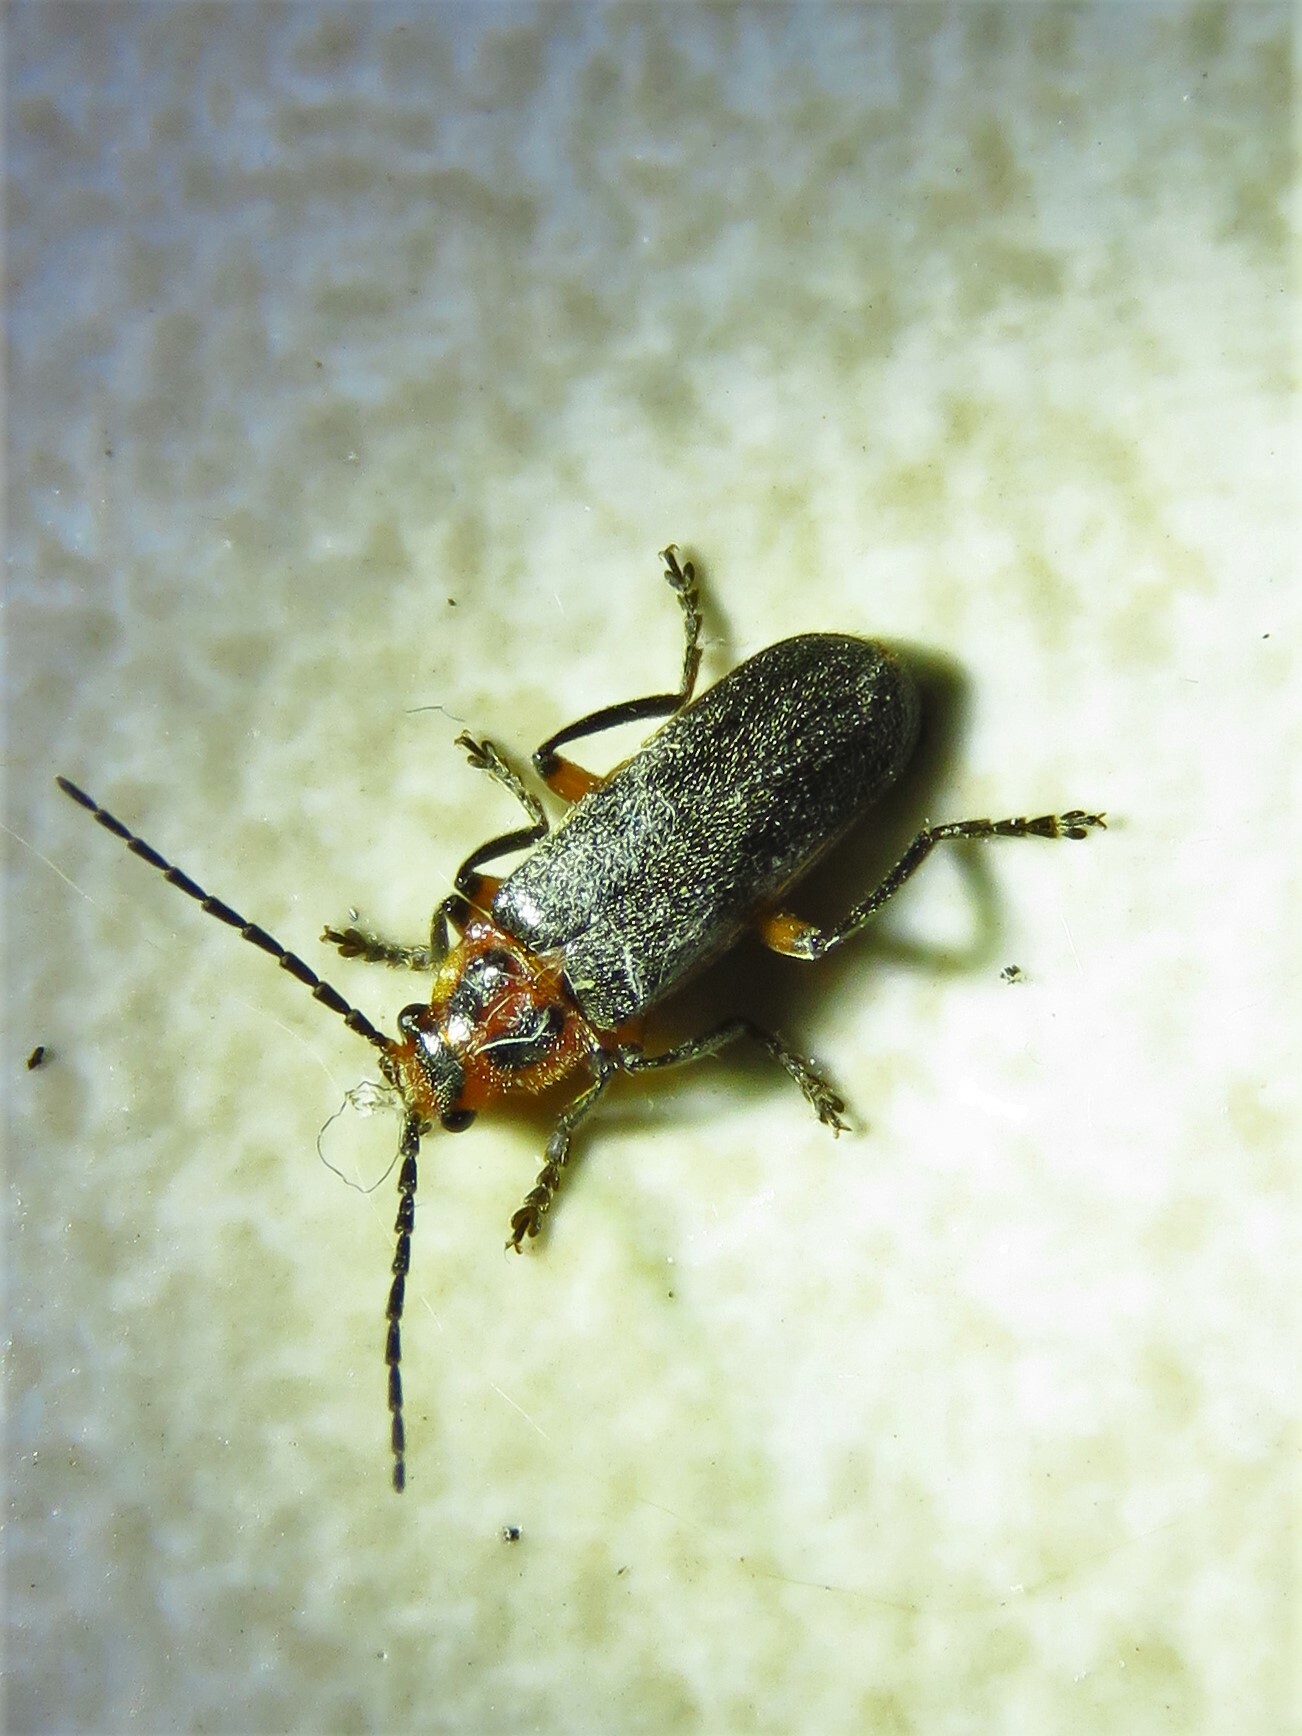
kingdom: Animalia
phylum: Arthropoda
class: Insecta
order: Coleoptera
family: Cantharidae
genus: Atalantycha
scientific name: Atalantycha bilineata
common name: Two-lined leatherwing
